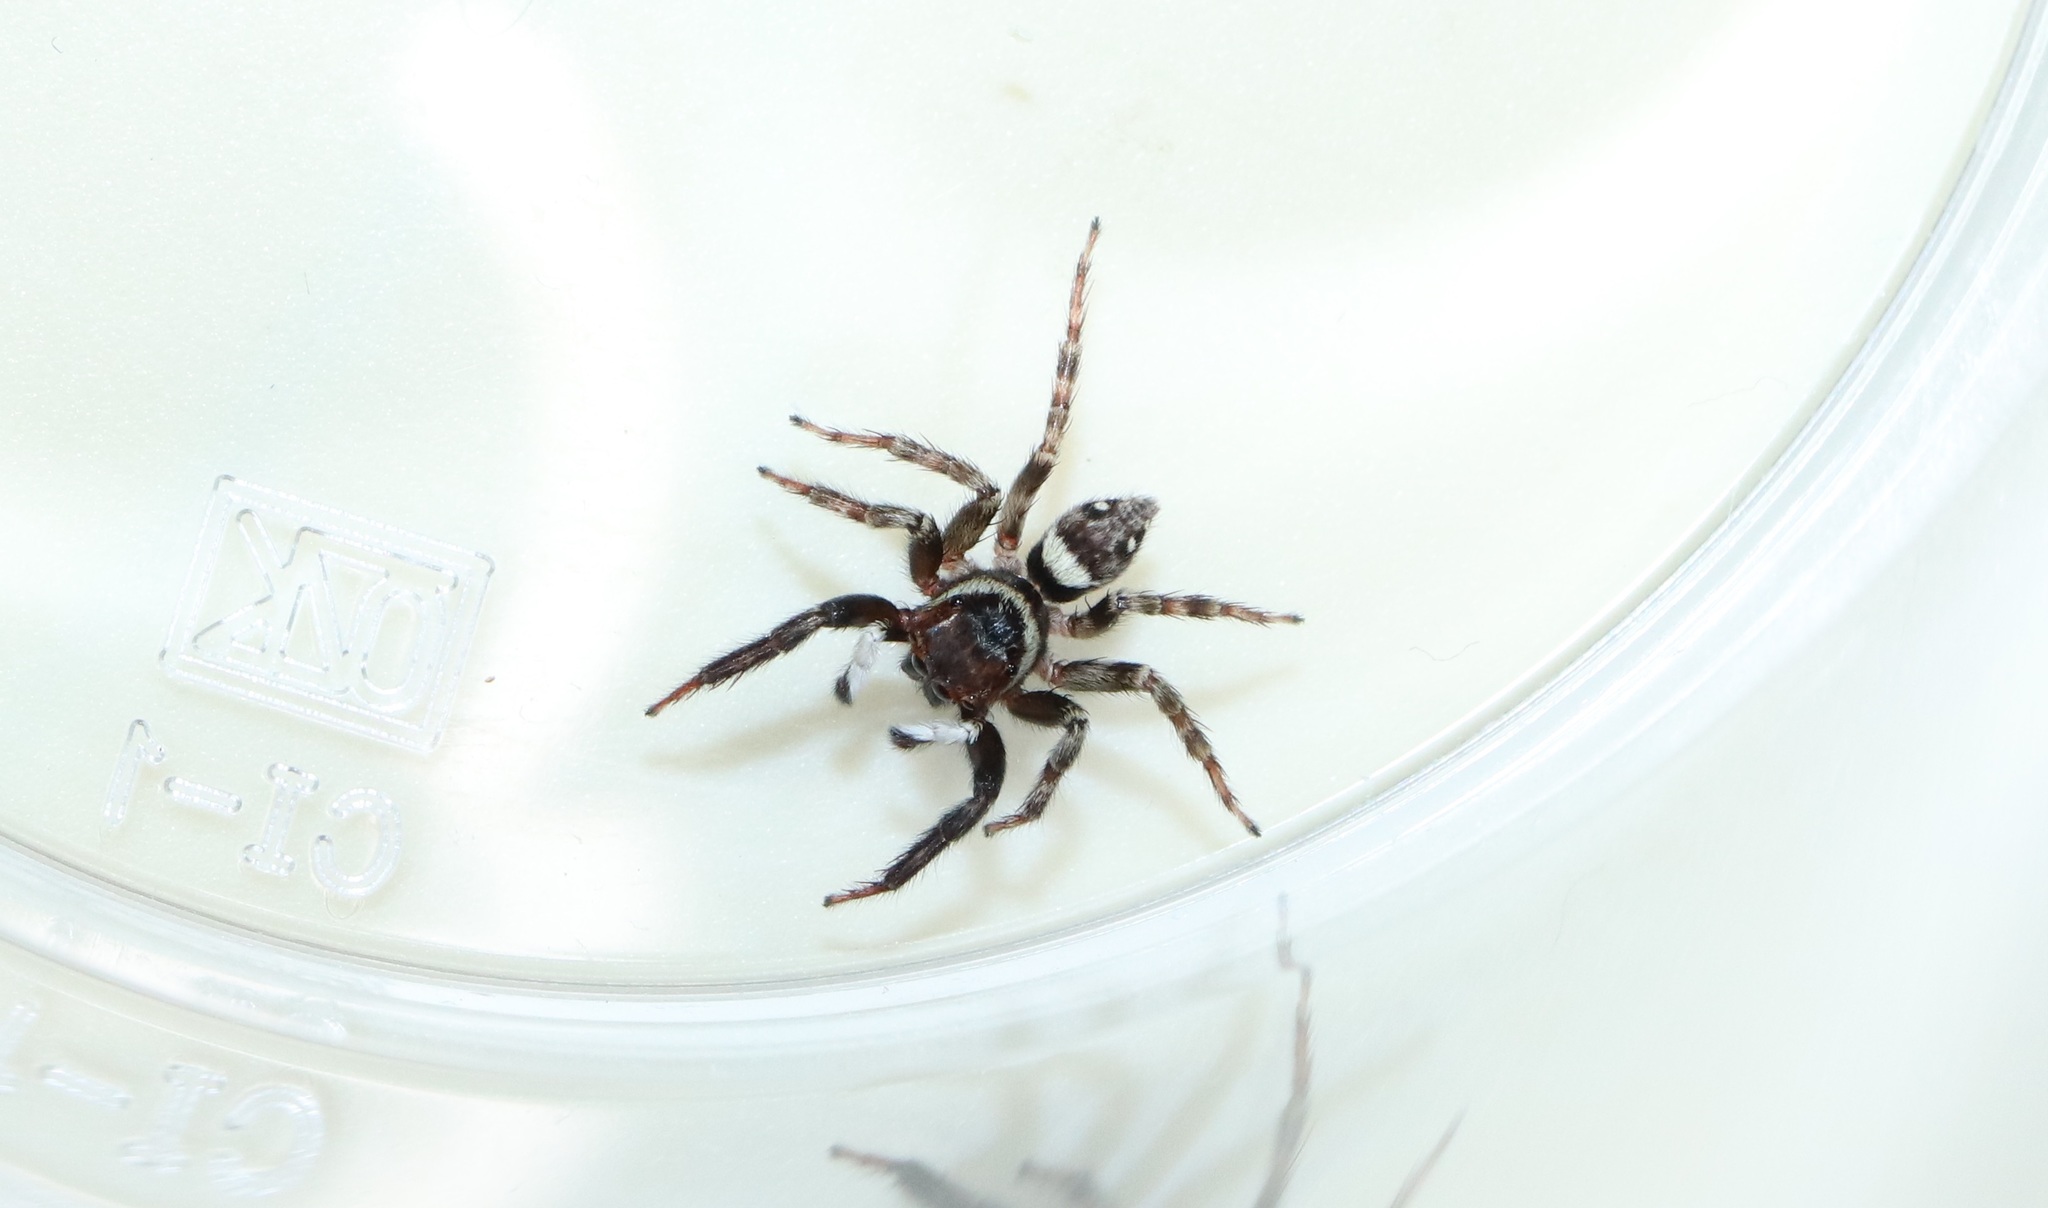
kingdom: Animalia
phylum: Arthropoda
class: Arachnida
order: Araneae
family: Salticidae
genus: Hasarius
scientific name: Hasarius adansoni
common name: Jumping spider
